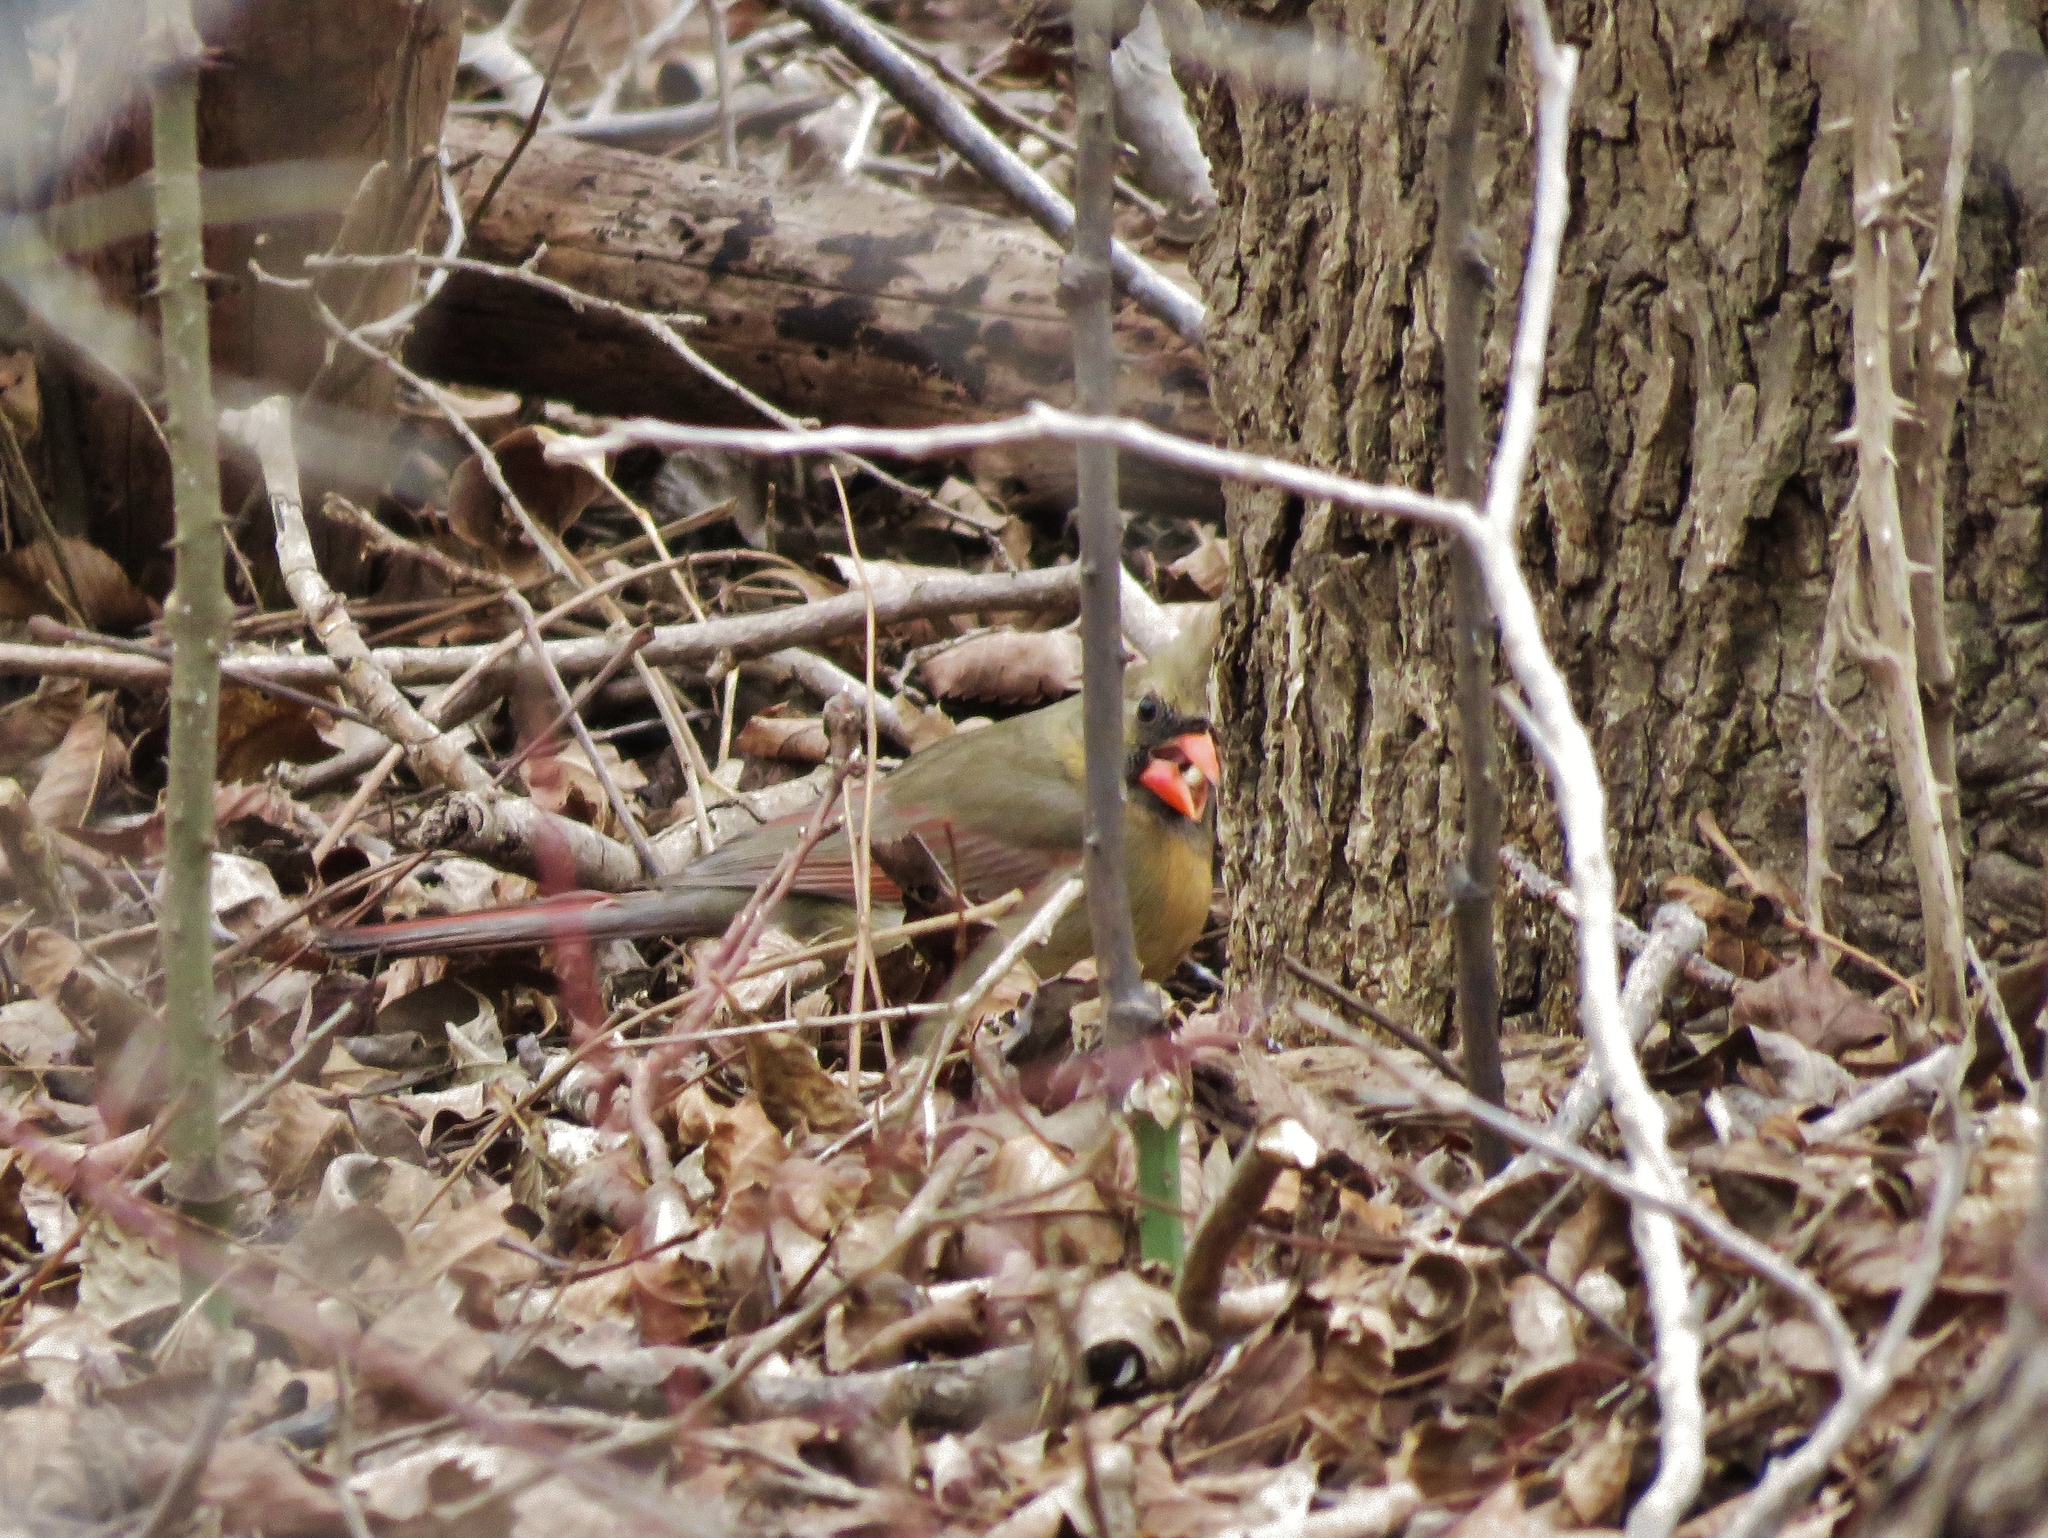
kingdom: Animalia
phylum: Chordata
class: Aves
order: Passeriformes
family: Cardinalidae
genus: Cardinalis
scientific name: Cardinalis cardinalis
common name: Northern cardinal
